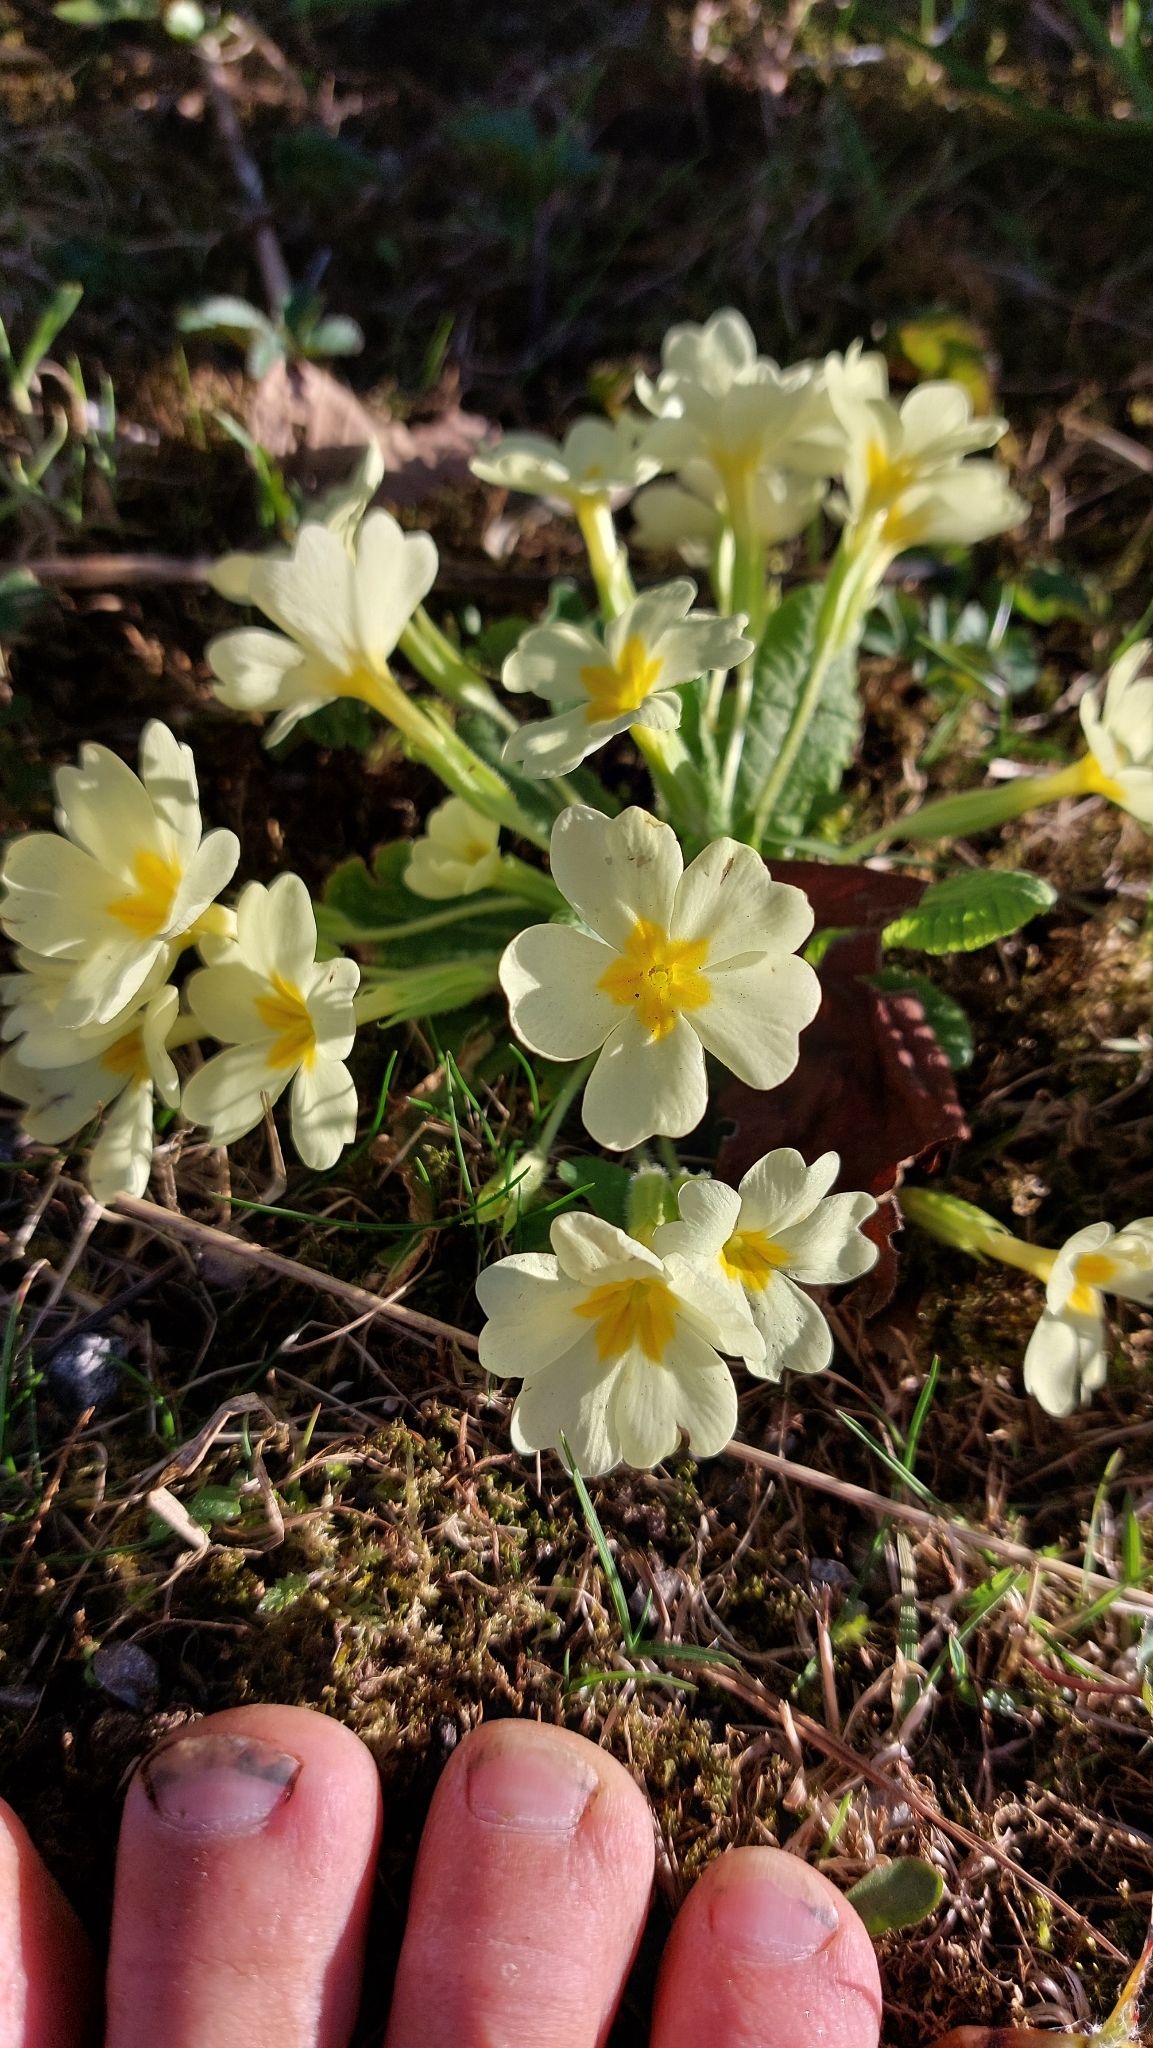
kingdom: Plantae
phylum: Tracheophyta
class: Magnoliopsida
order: Ericales
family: Primulaceae
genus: Primula
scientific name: Primula vulgaris
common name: Primrose
